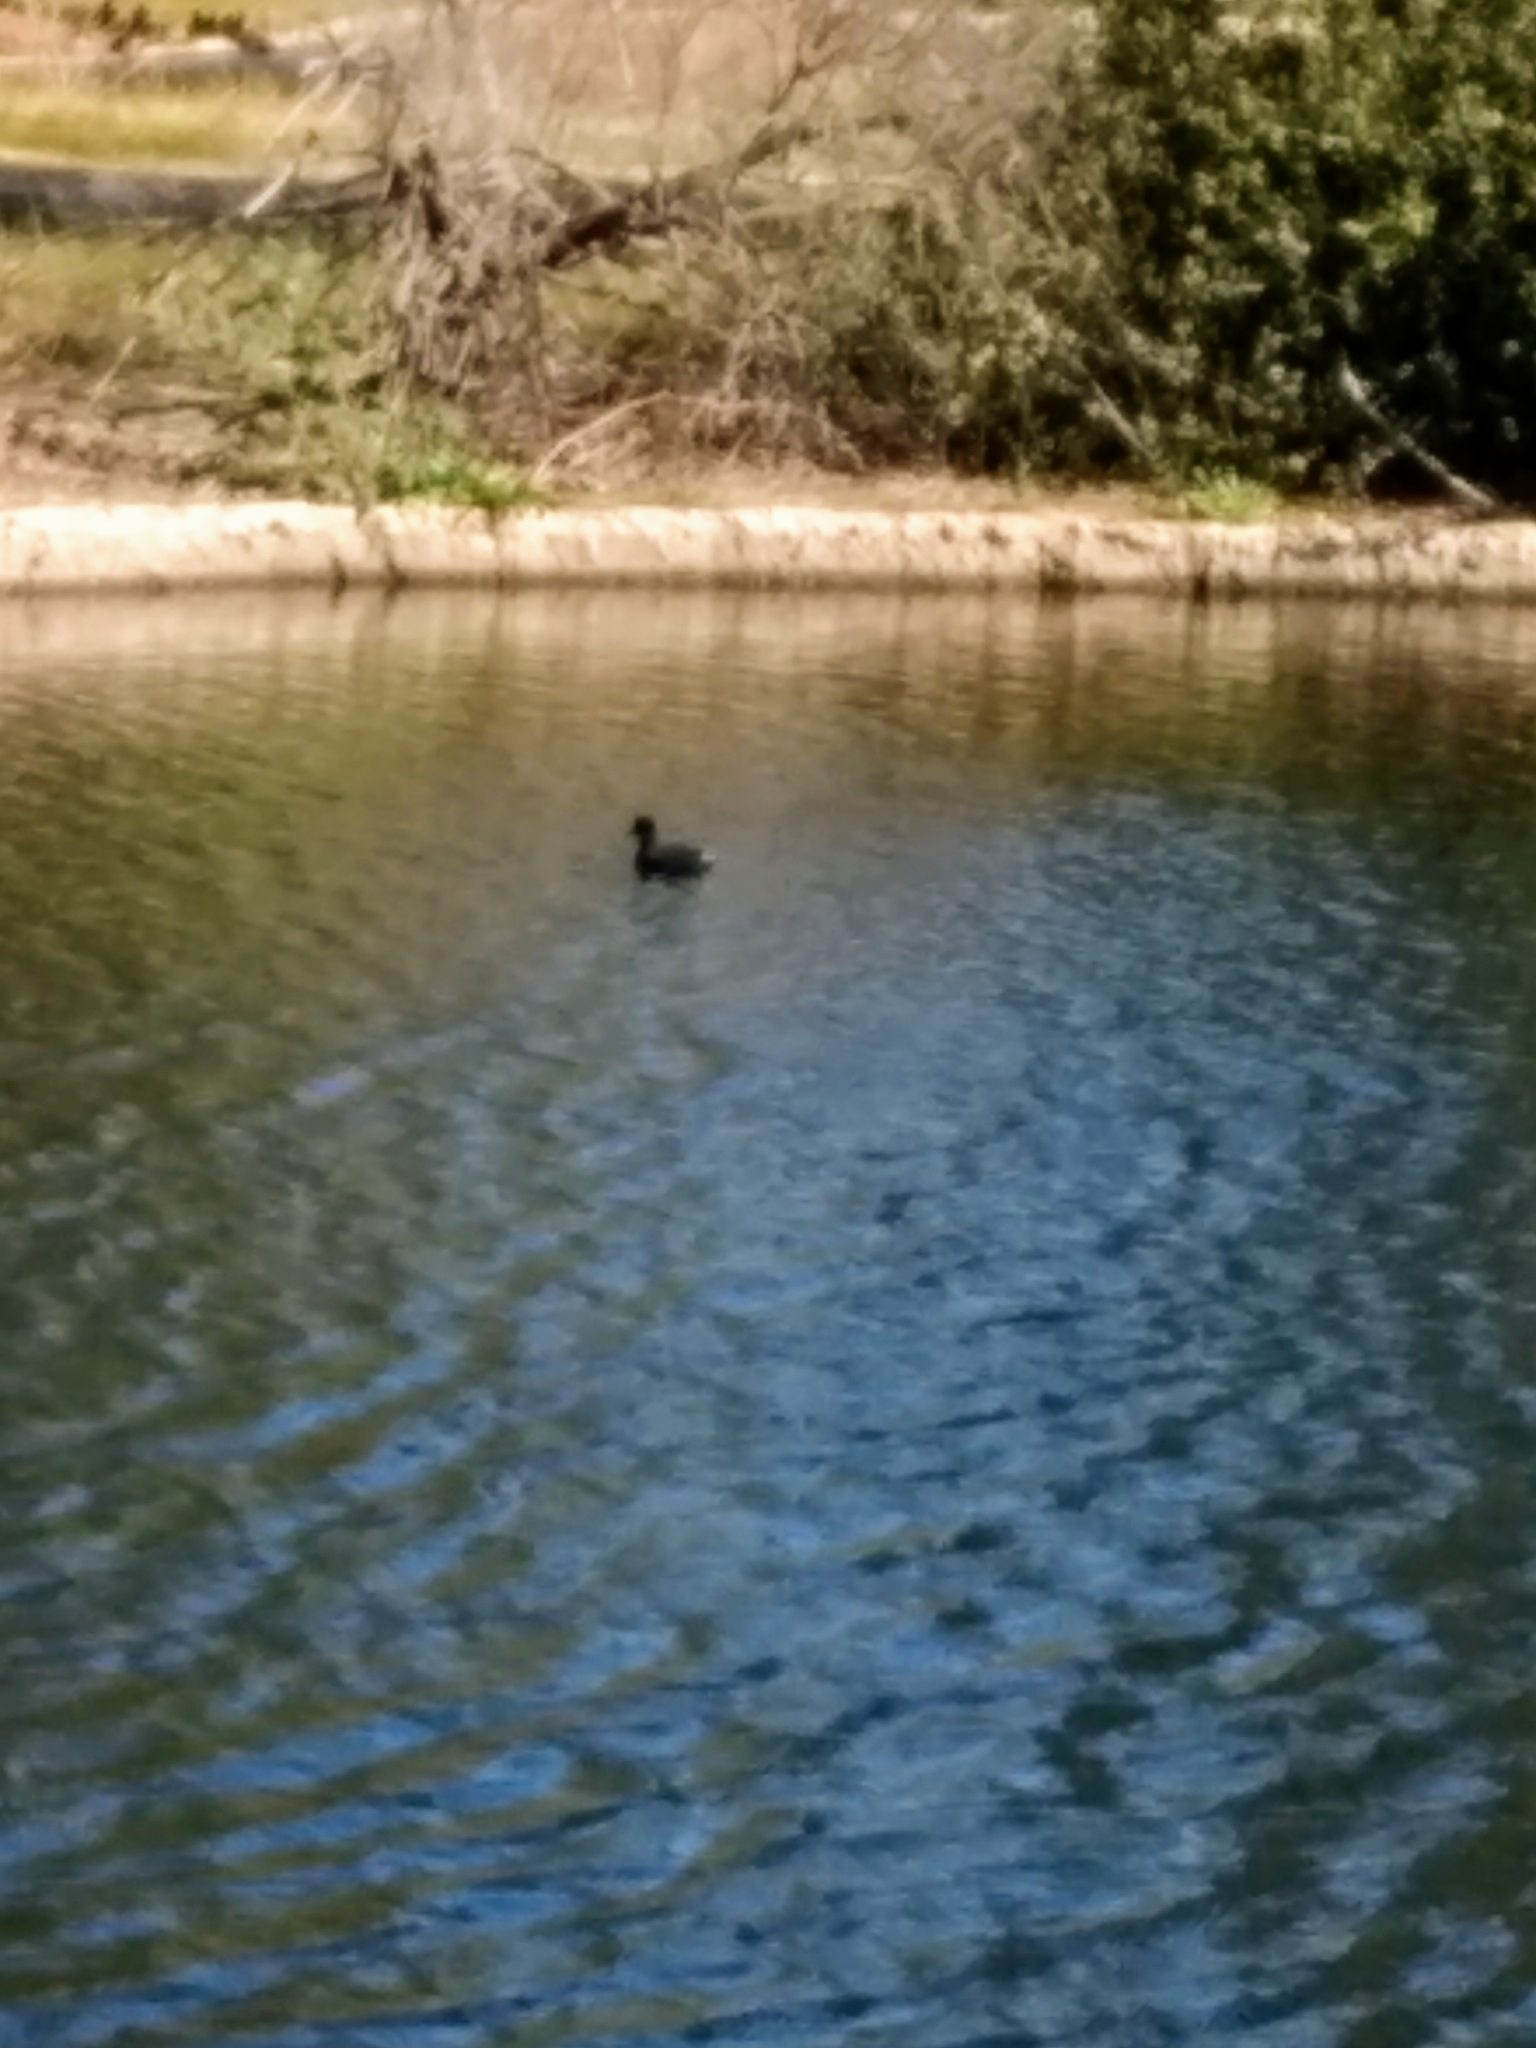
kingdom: Animalia
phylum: Chordata
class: Aves
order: Gruiformes
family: Rallidae
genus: Fulica
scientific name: Fulica americana
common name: American coot
